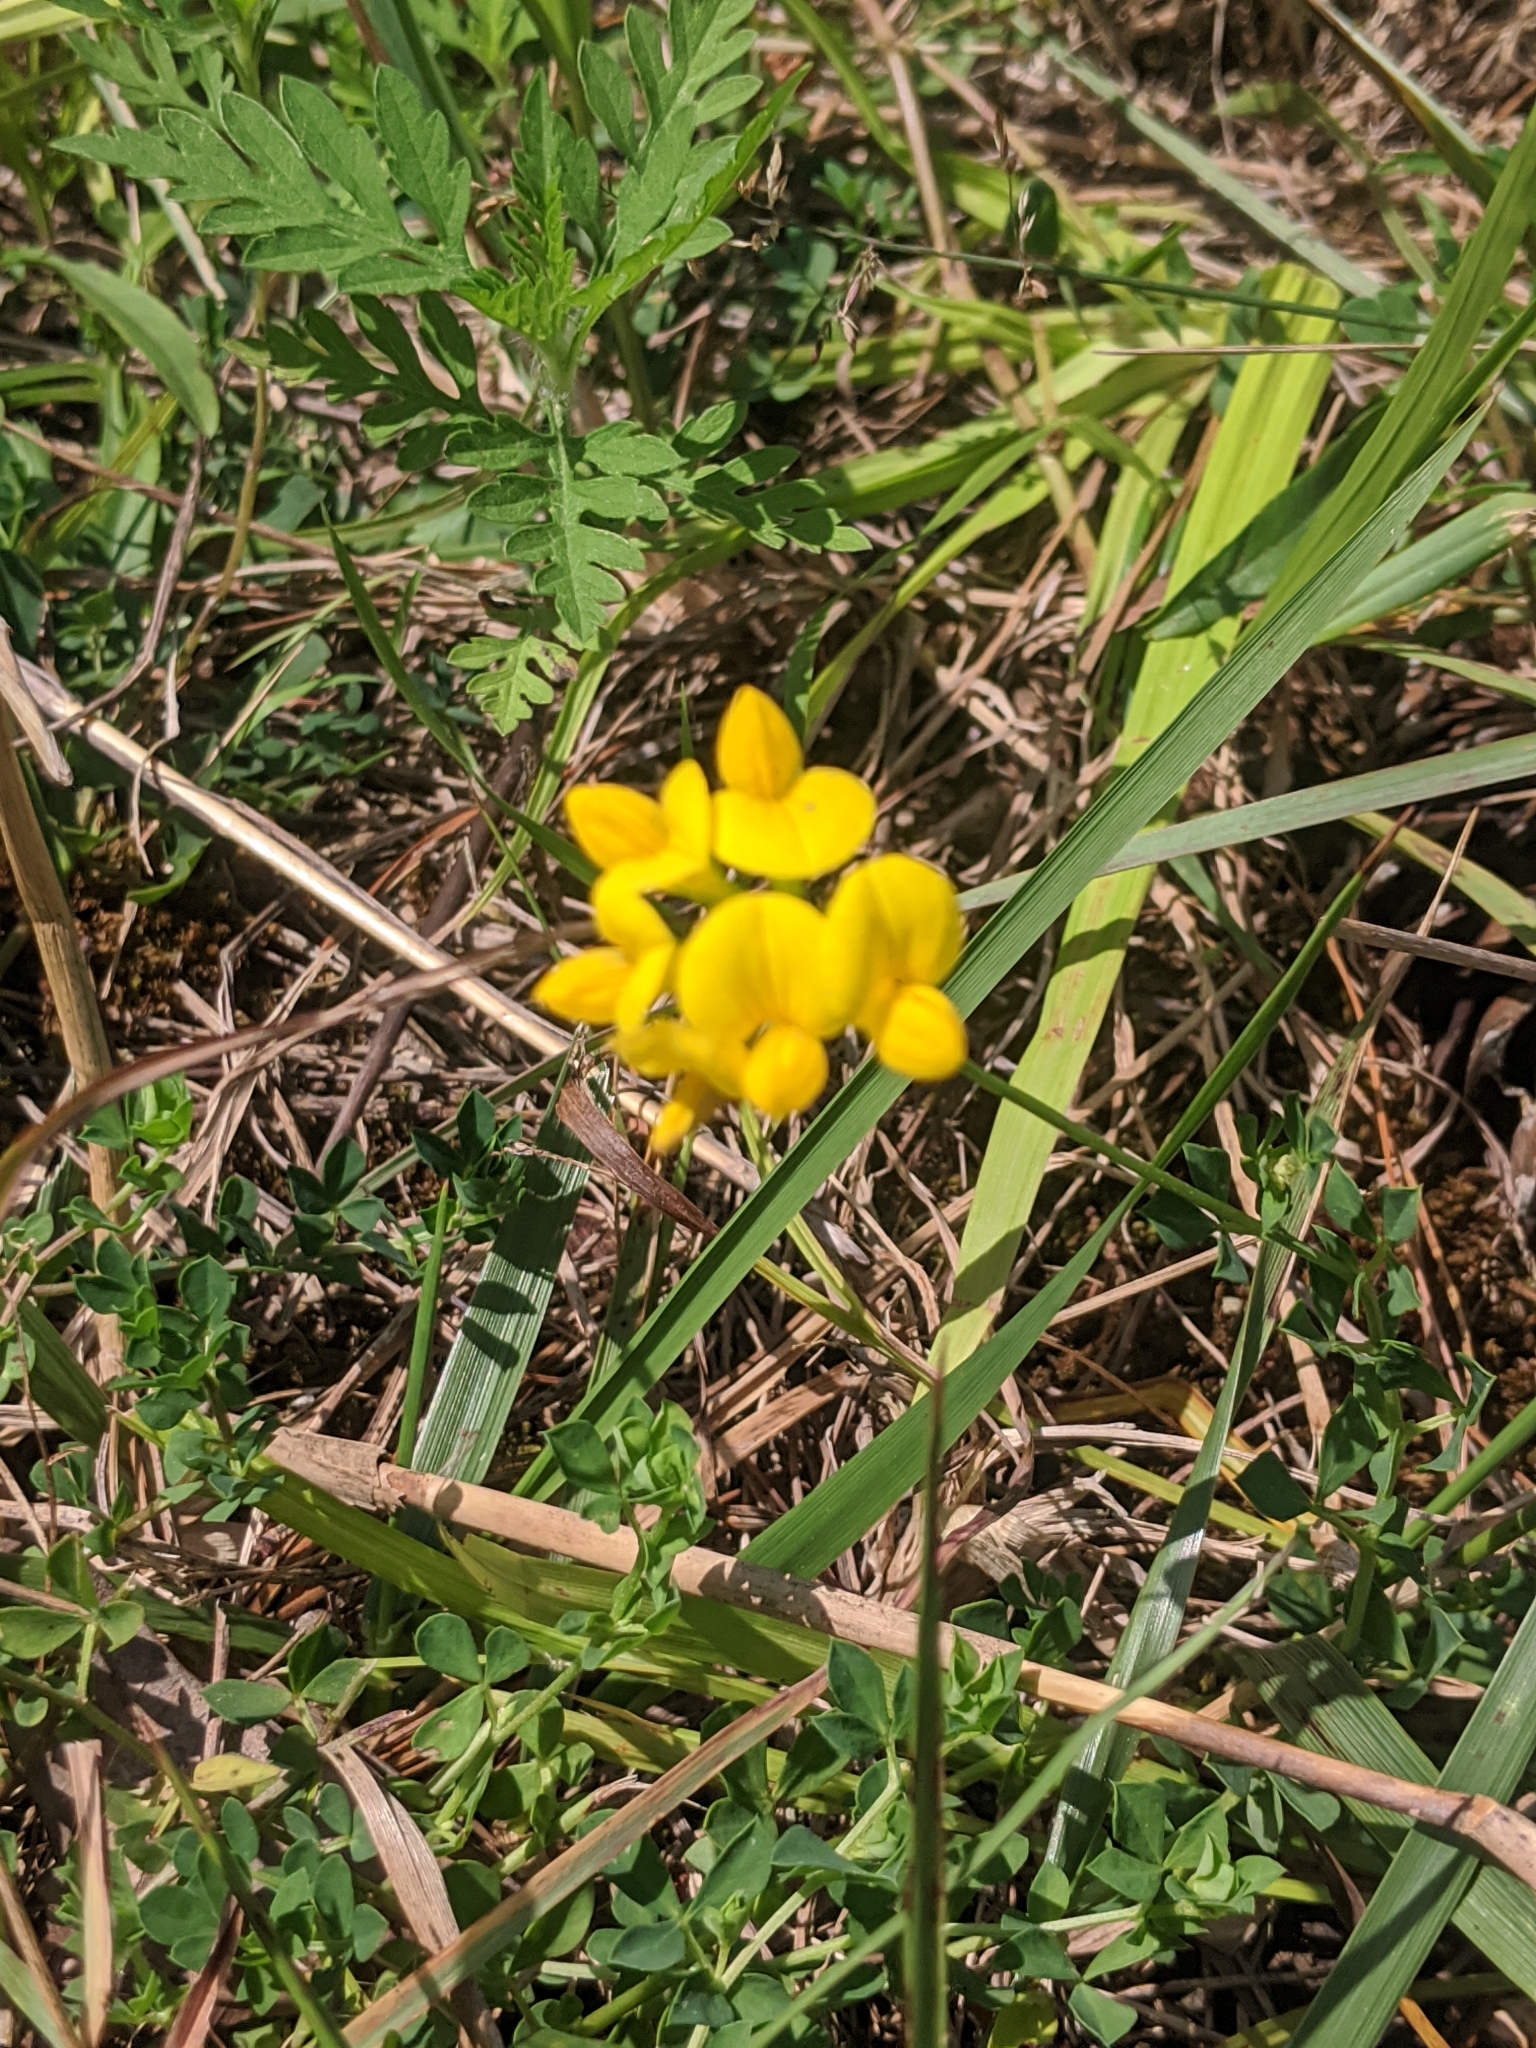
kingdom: Plantae
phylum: Tracheophyta
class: Magnoliopsida
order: Fabales
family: Fabaceae
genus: Lotus
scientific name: Lotus corniculatus
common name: Common bird's-foot-trefoil
